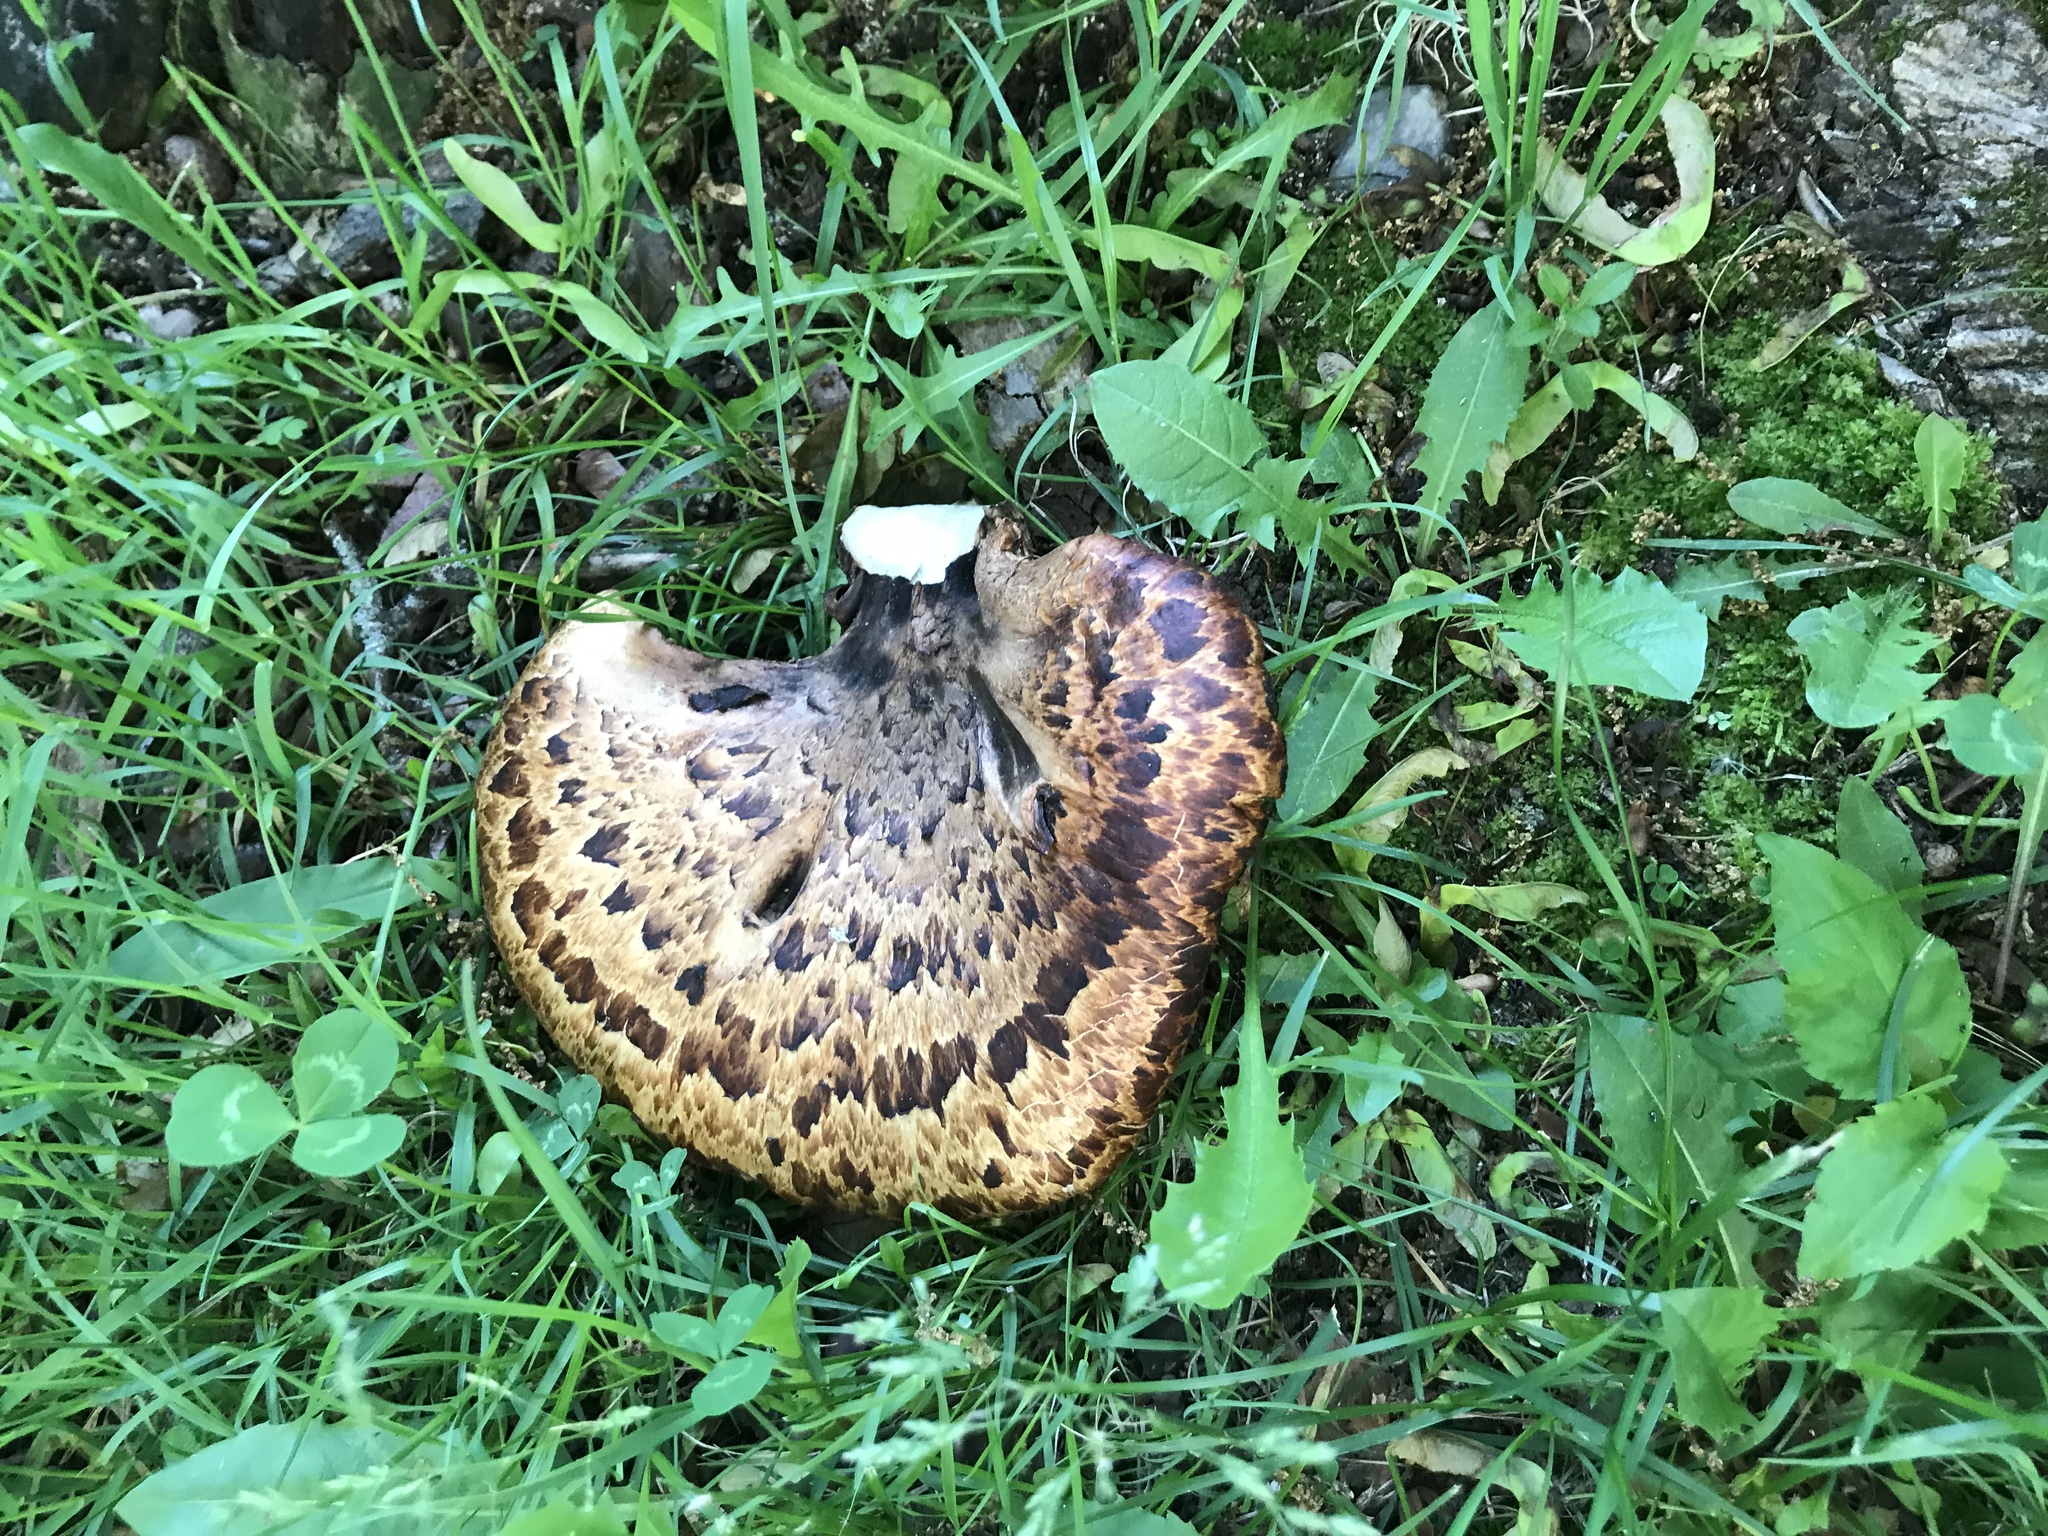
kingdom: Fungi
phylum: Basidiomycota
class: Agaricomycetes
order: Polyporales
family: Polyporaceae
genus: Cerioporus
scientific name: Cerioporus squamosus
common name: Dryad's saddle
